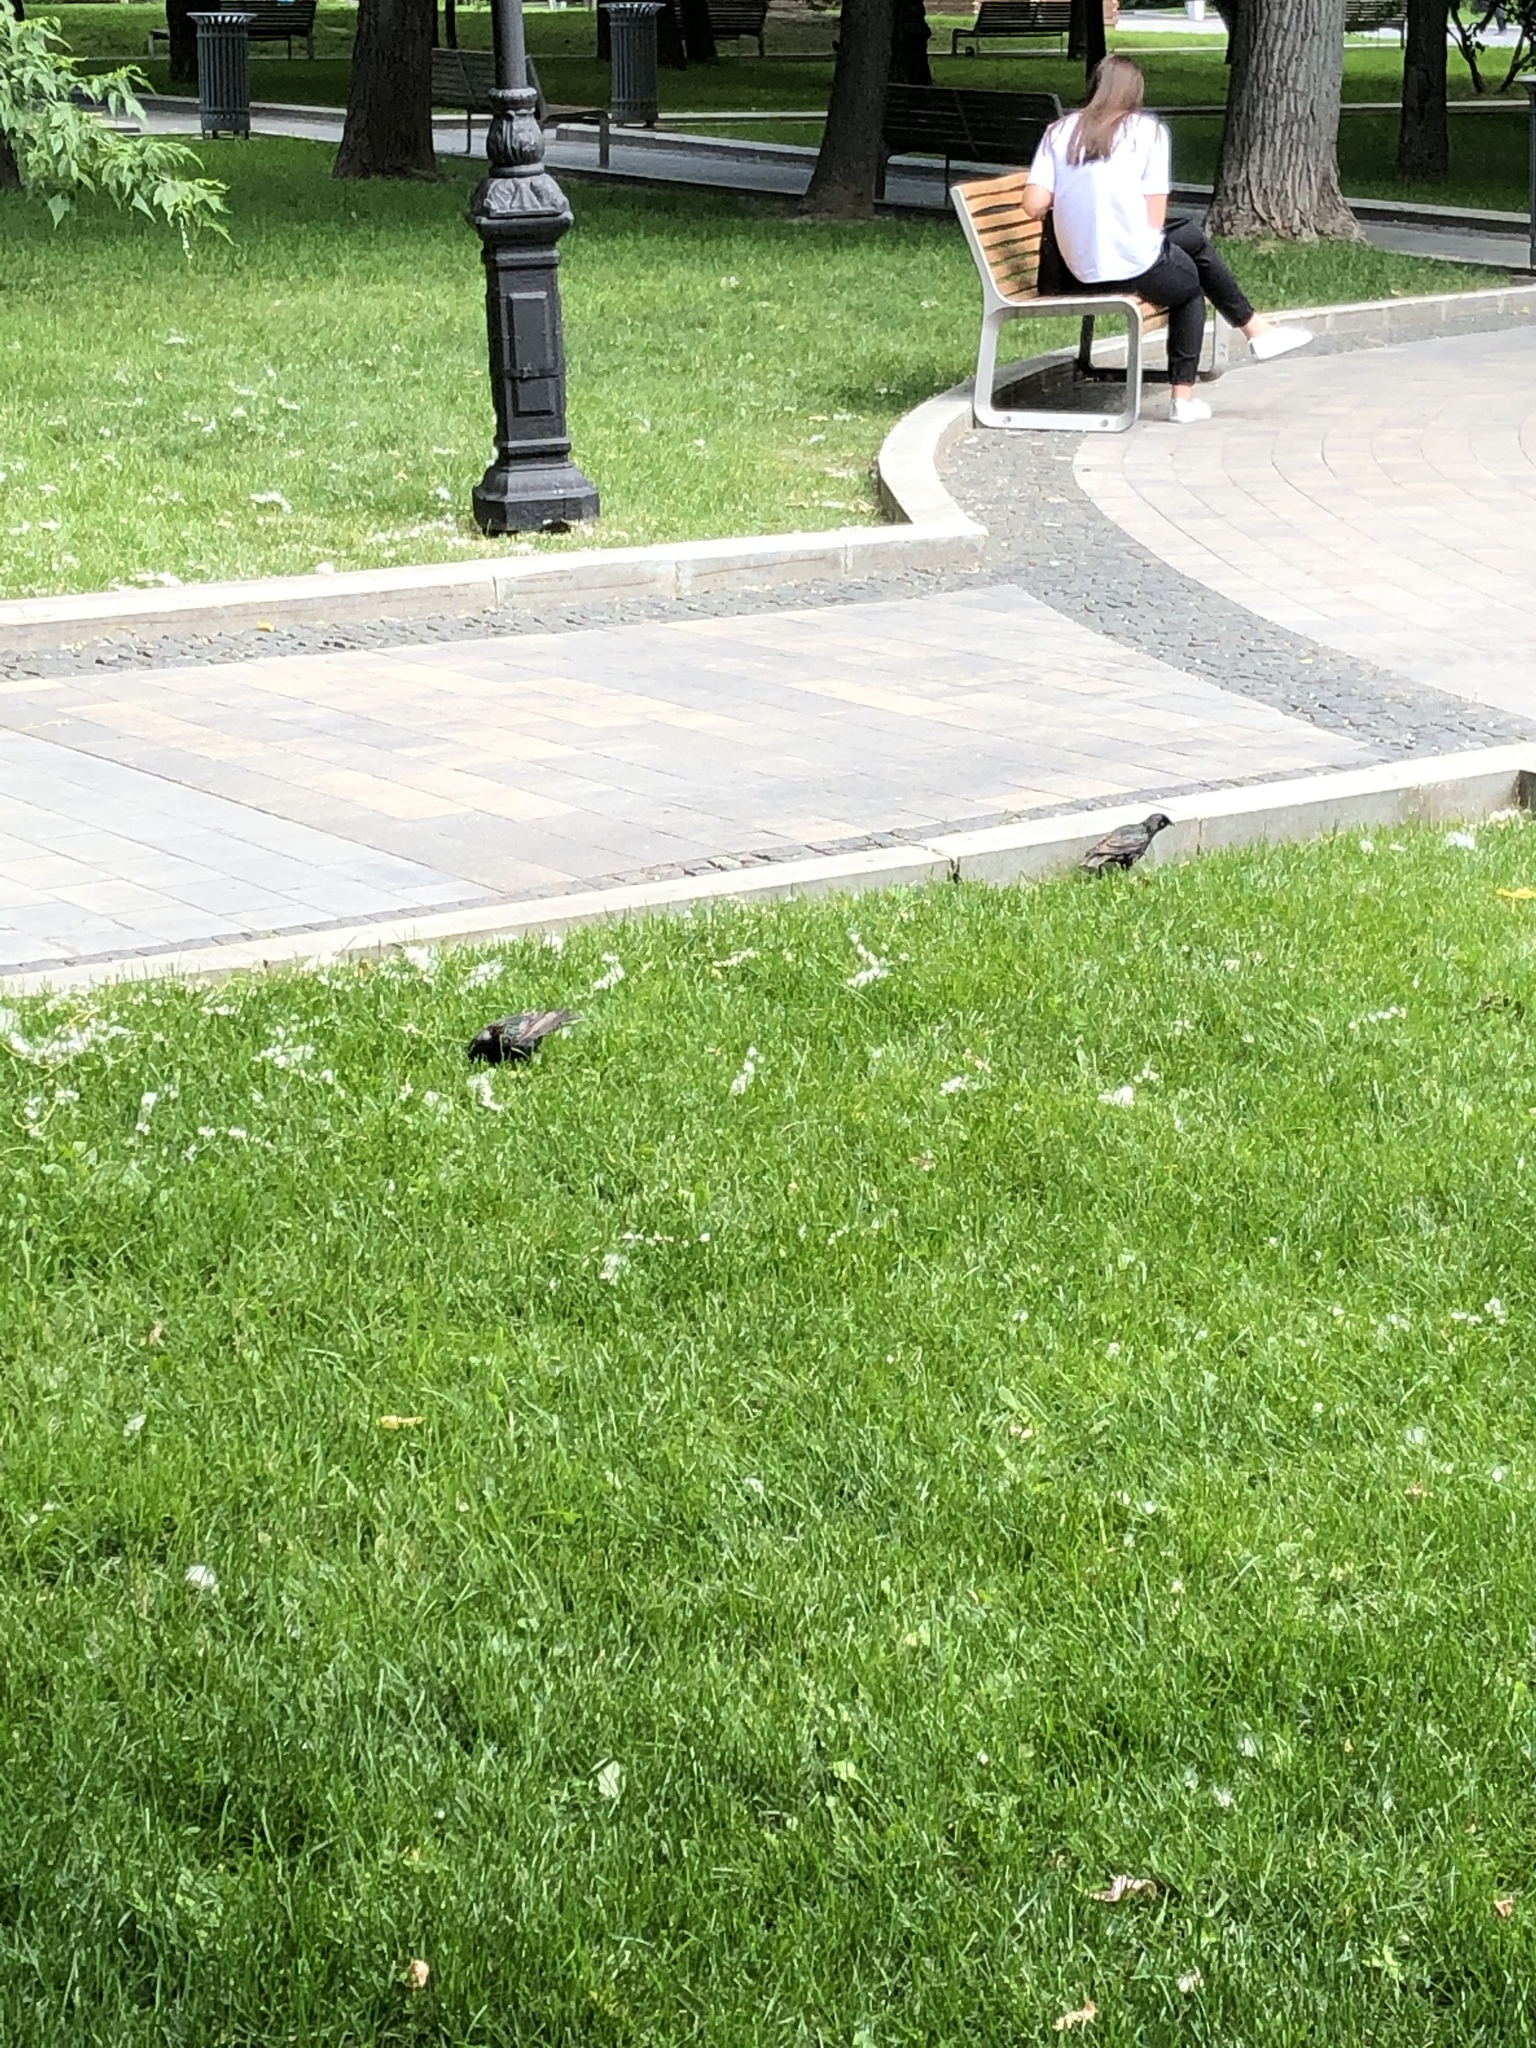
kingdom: Animalia
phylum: Chordata
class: Aves
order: Passeriformes
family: Sturnidae
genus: Sturnus
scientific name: Sturnus vulgaris
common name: Common starling
